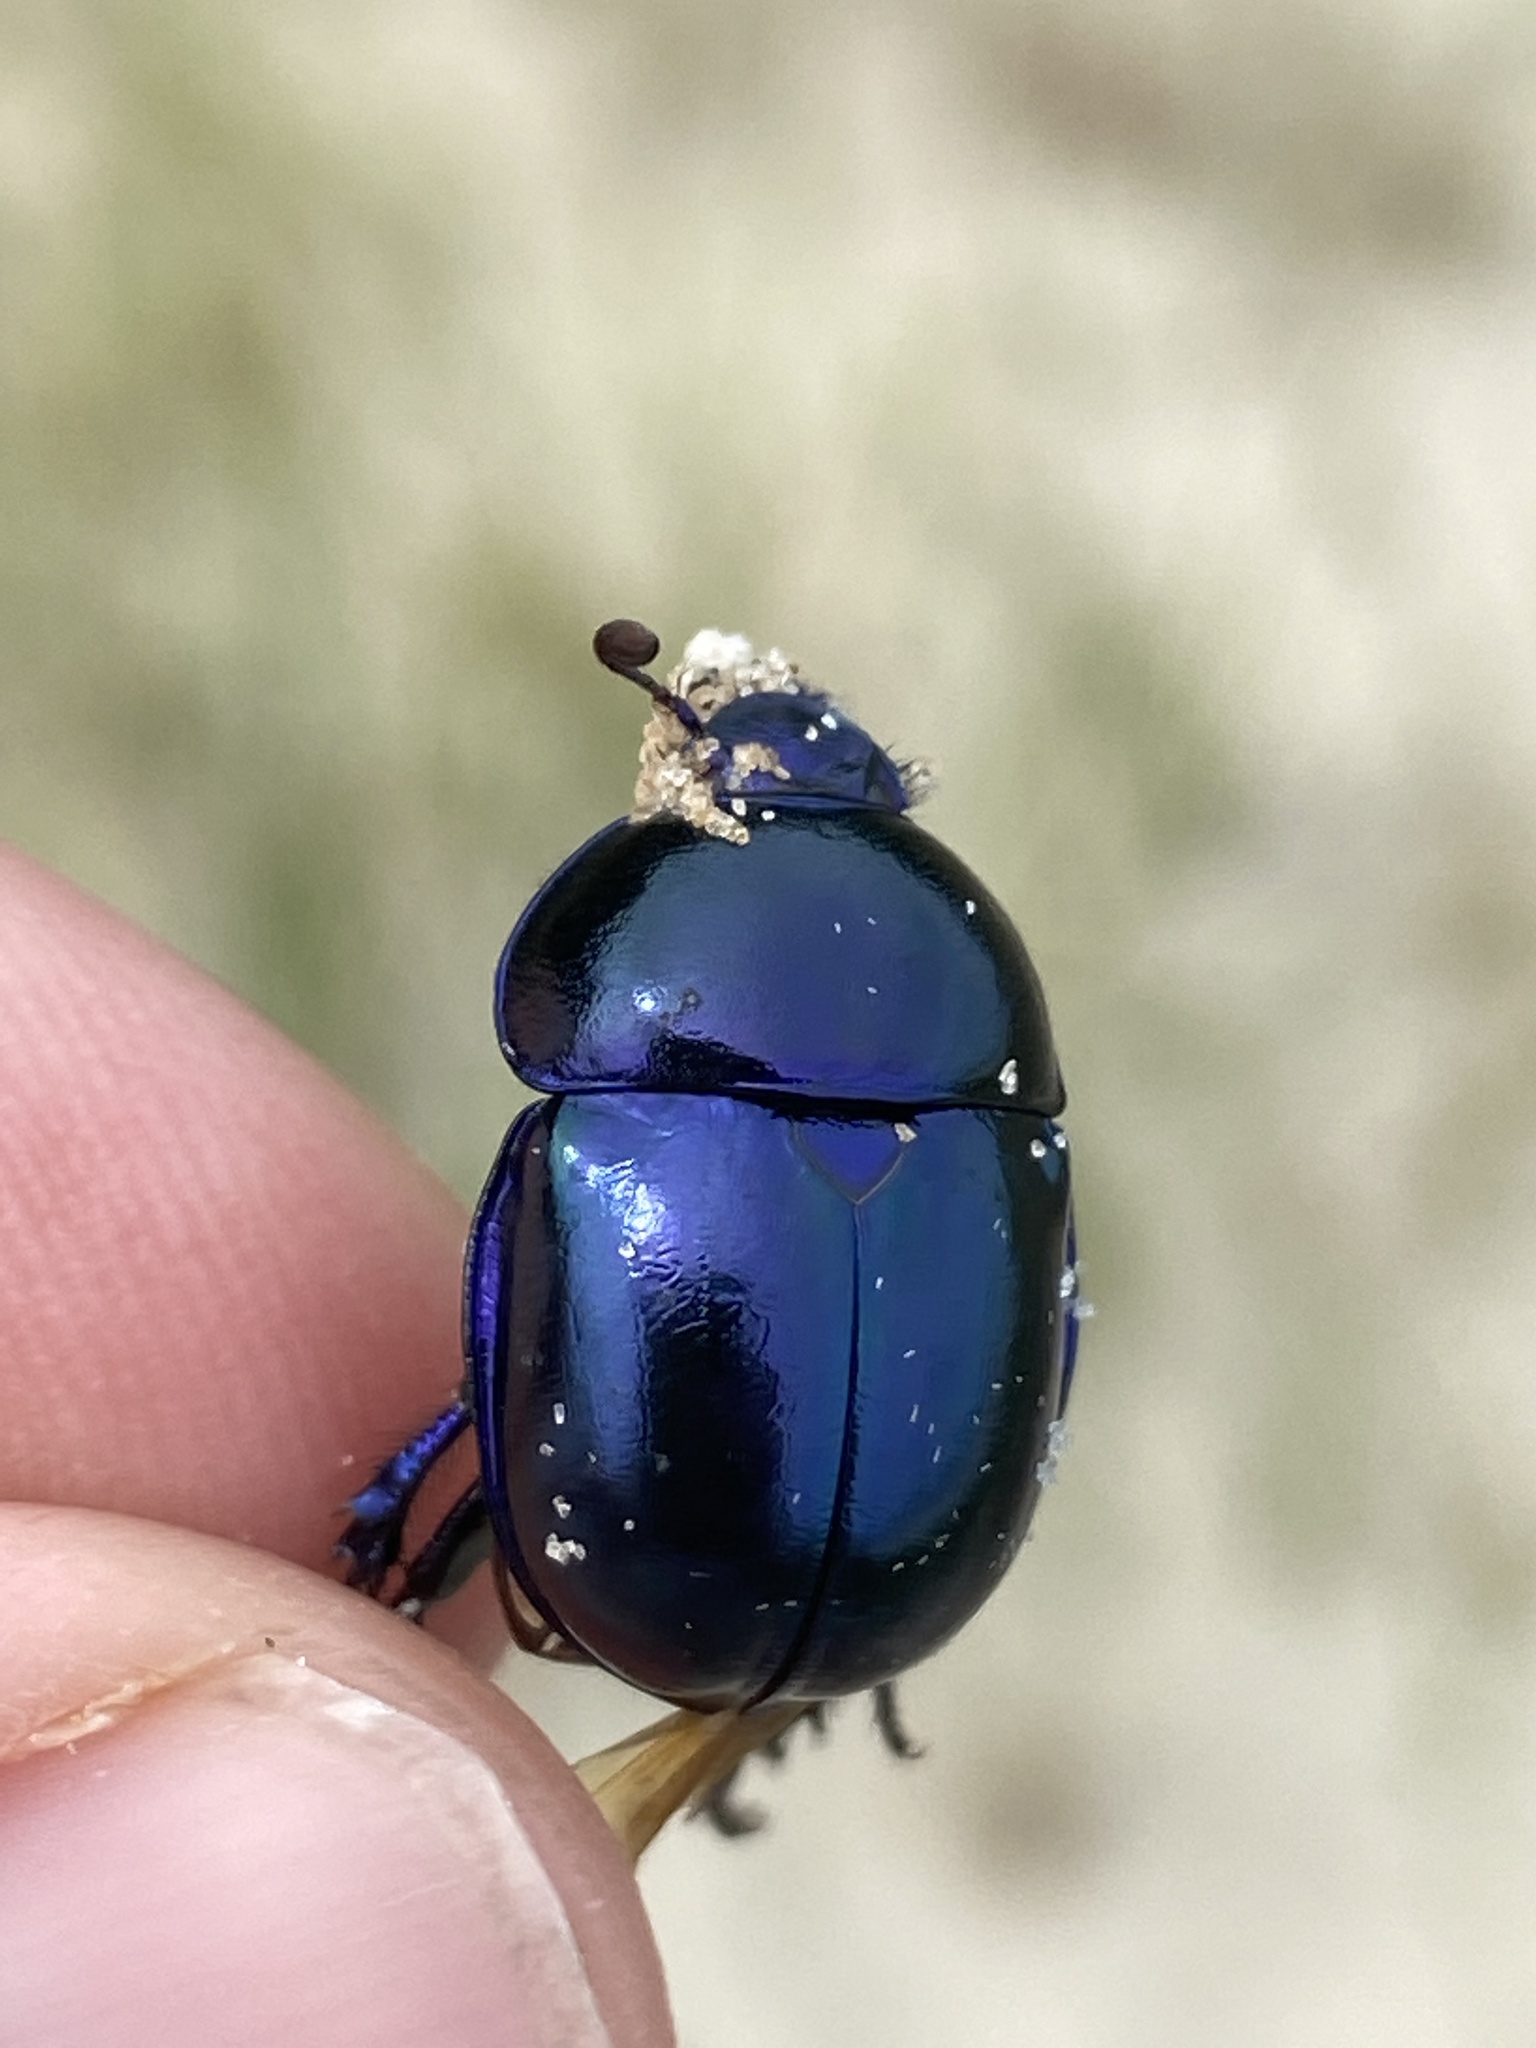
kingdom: Animalia
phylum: Arthropoda
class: Insecta
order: Coleoptera
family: Geotrupidae
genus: Trypocopris
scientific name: Trypocopris vernalis
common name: Spring dumbledor
